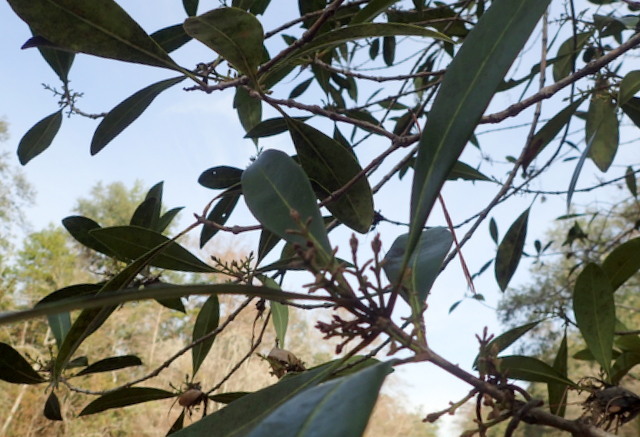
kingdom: Plantae
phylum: Tracheophyta
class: Magnoliopsida
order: Lamiales
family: Oleaceae
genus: Cartrema
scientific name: Cartrema americana
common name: Devilwood
